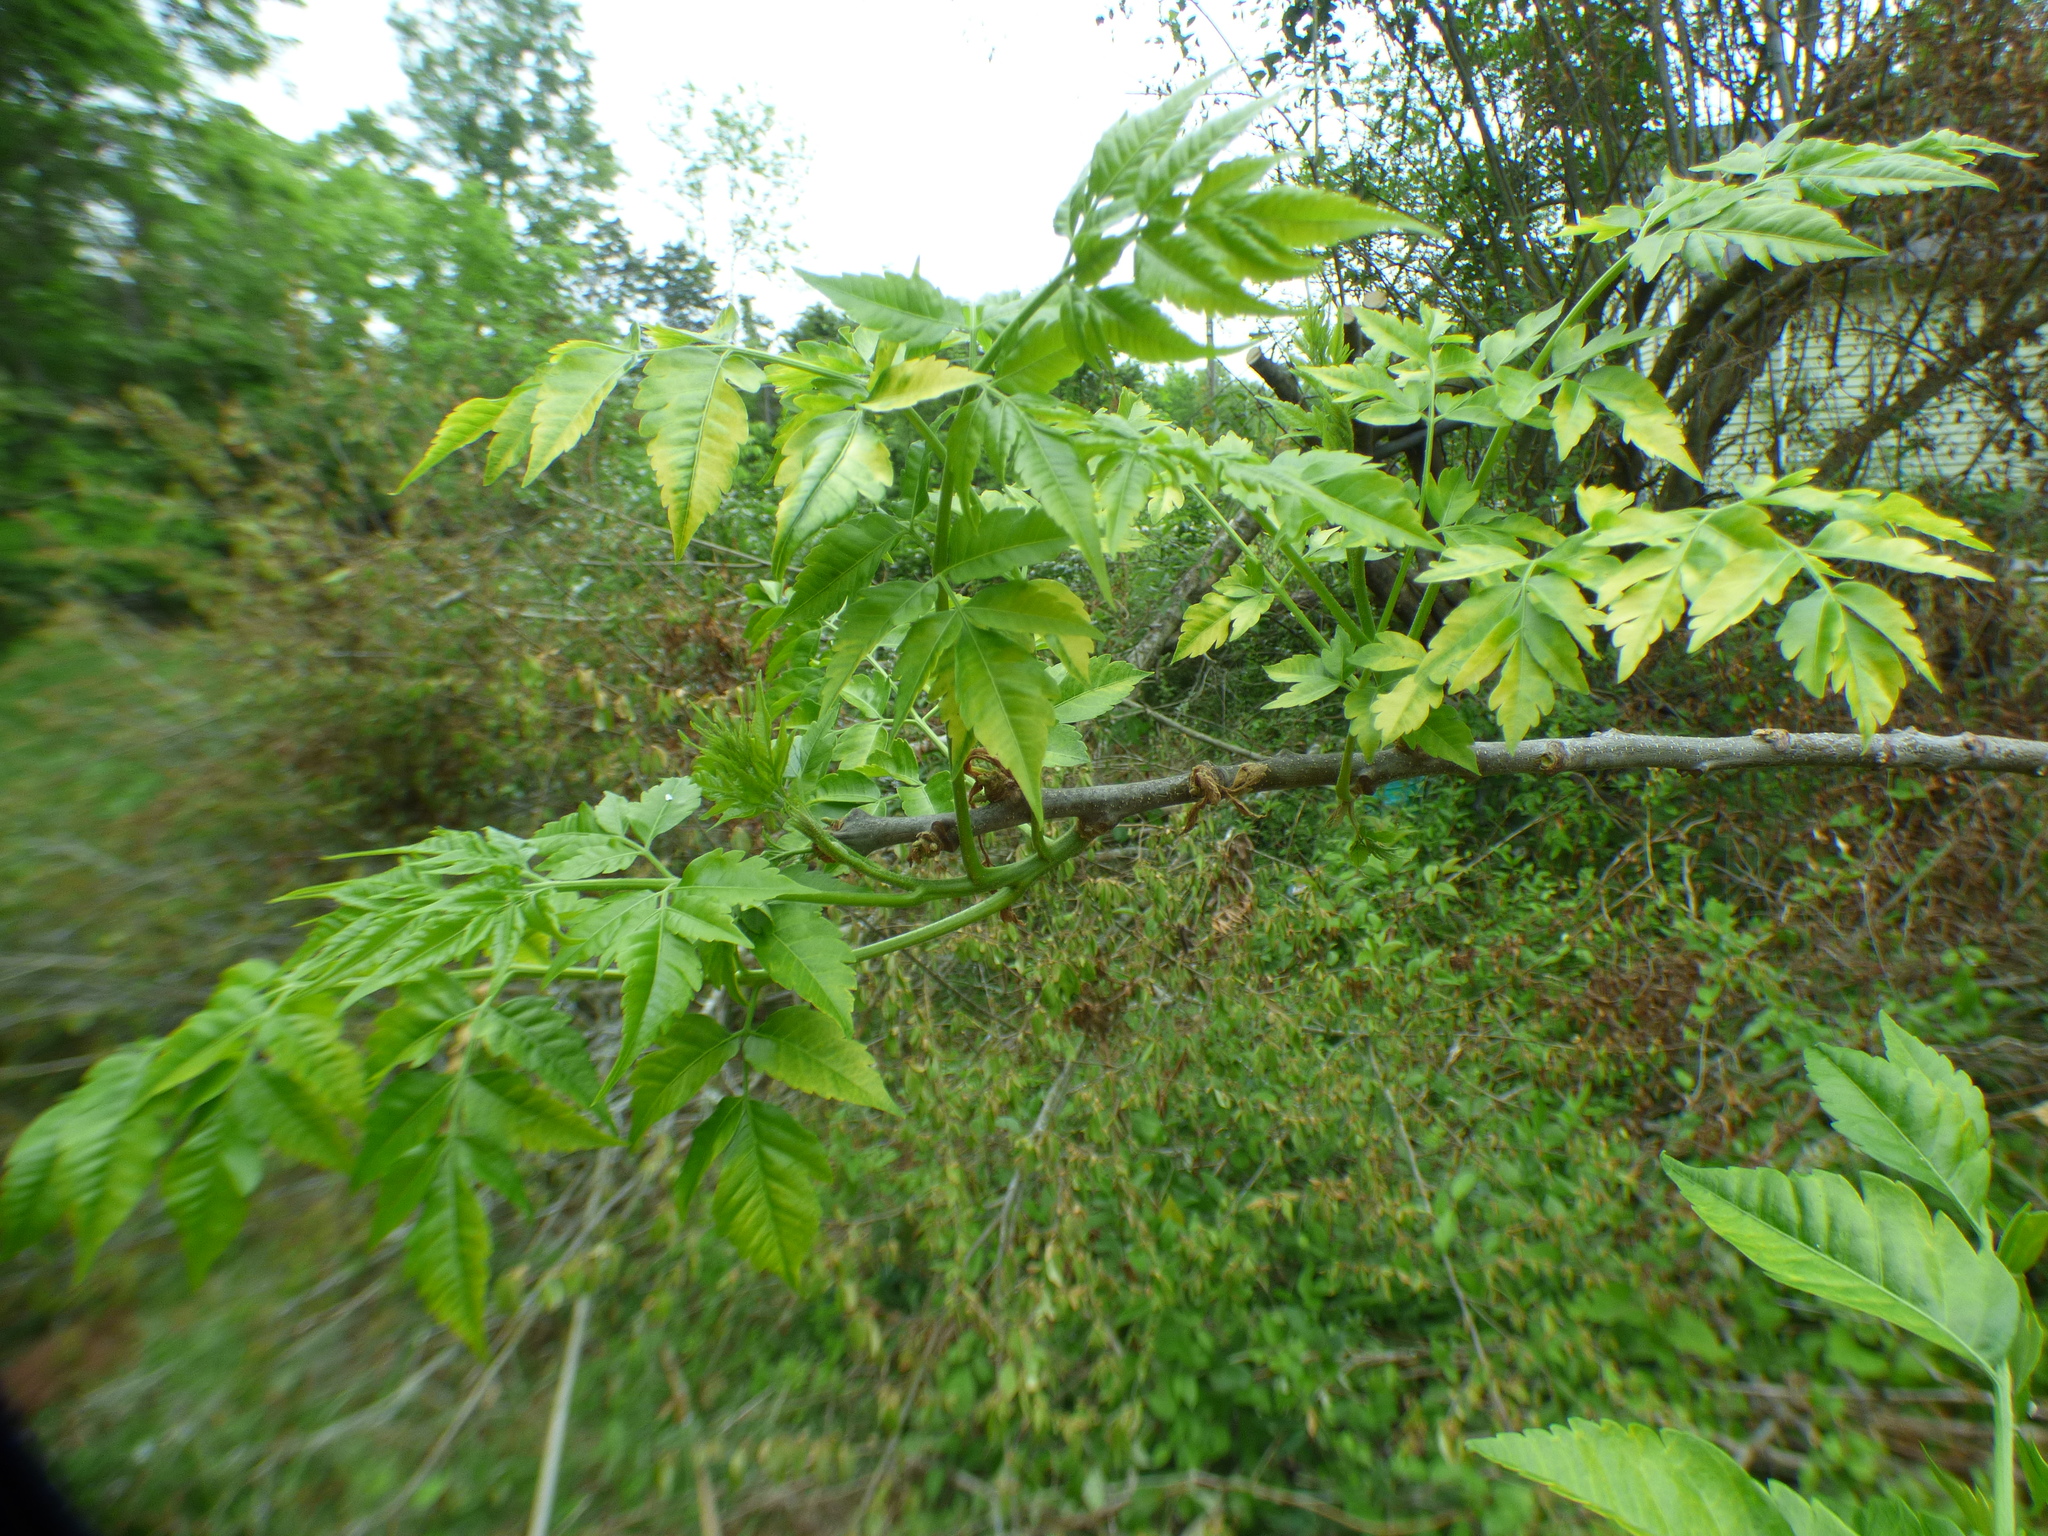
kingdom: Plantae
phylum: Tracheophyta
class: Magnoliopsida
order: Sapindales
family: Meliaceae
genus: Melia
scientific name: Melia azedarach
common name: Chinaberrytree
